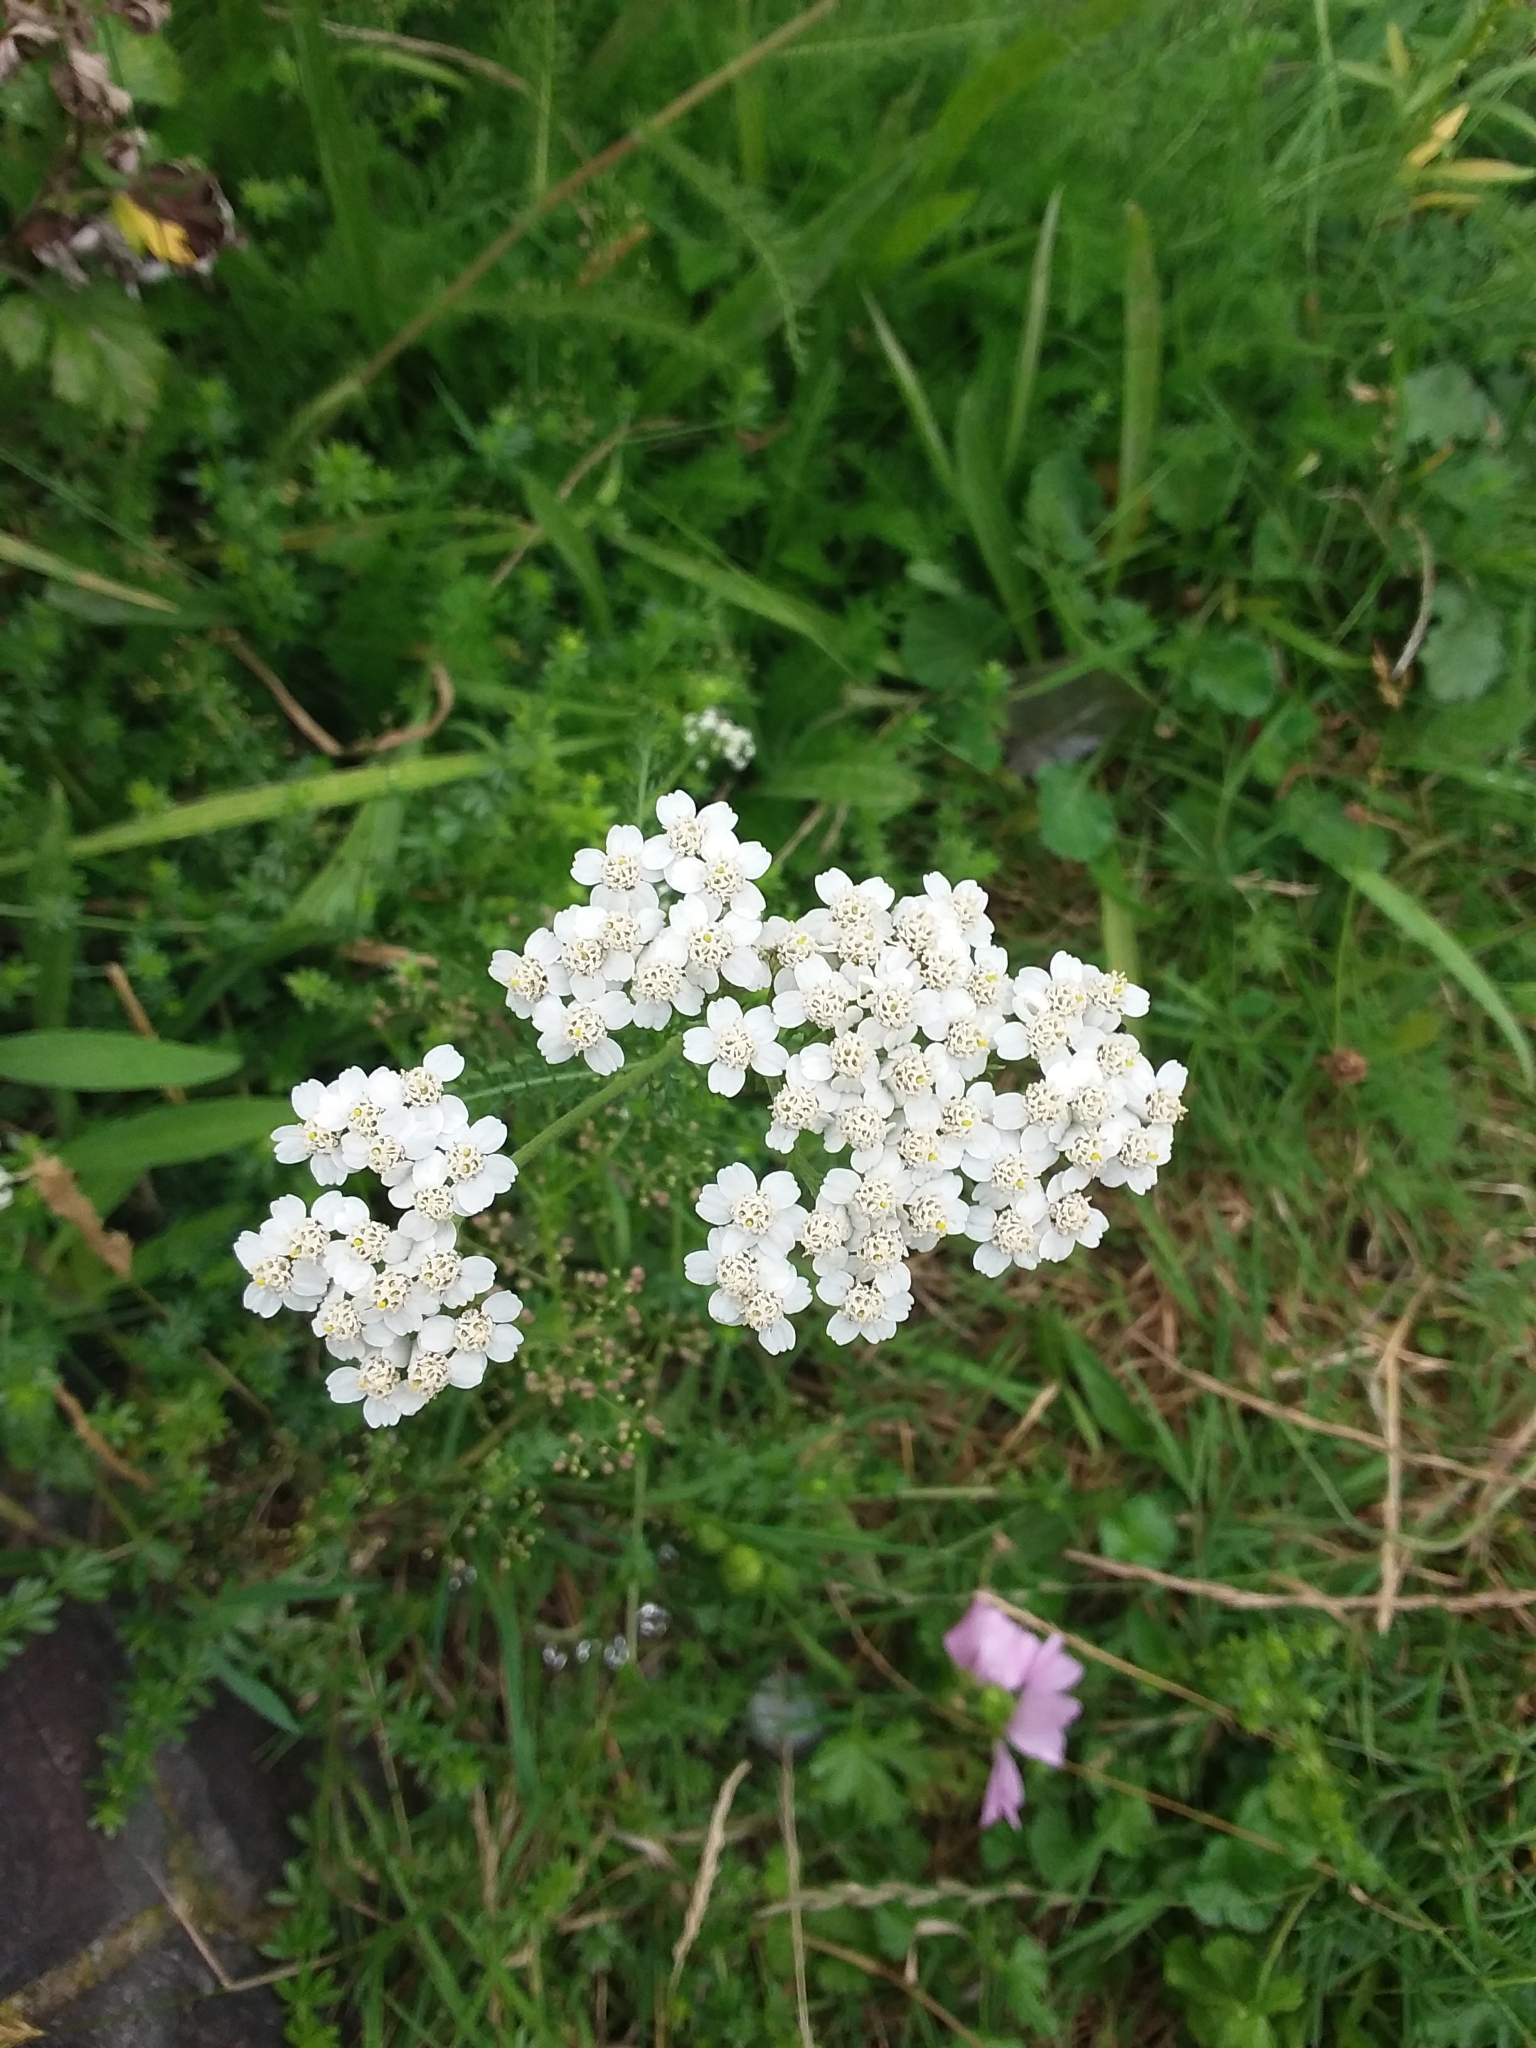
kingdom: Plantae
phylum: Tracheophyta
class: Magnoliopsida
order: Asterales
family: Asteraceae
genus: Achillea
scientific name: Achillea millefolium
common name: Yarrow
